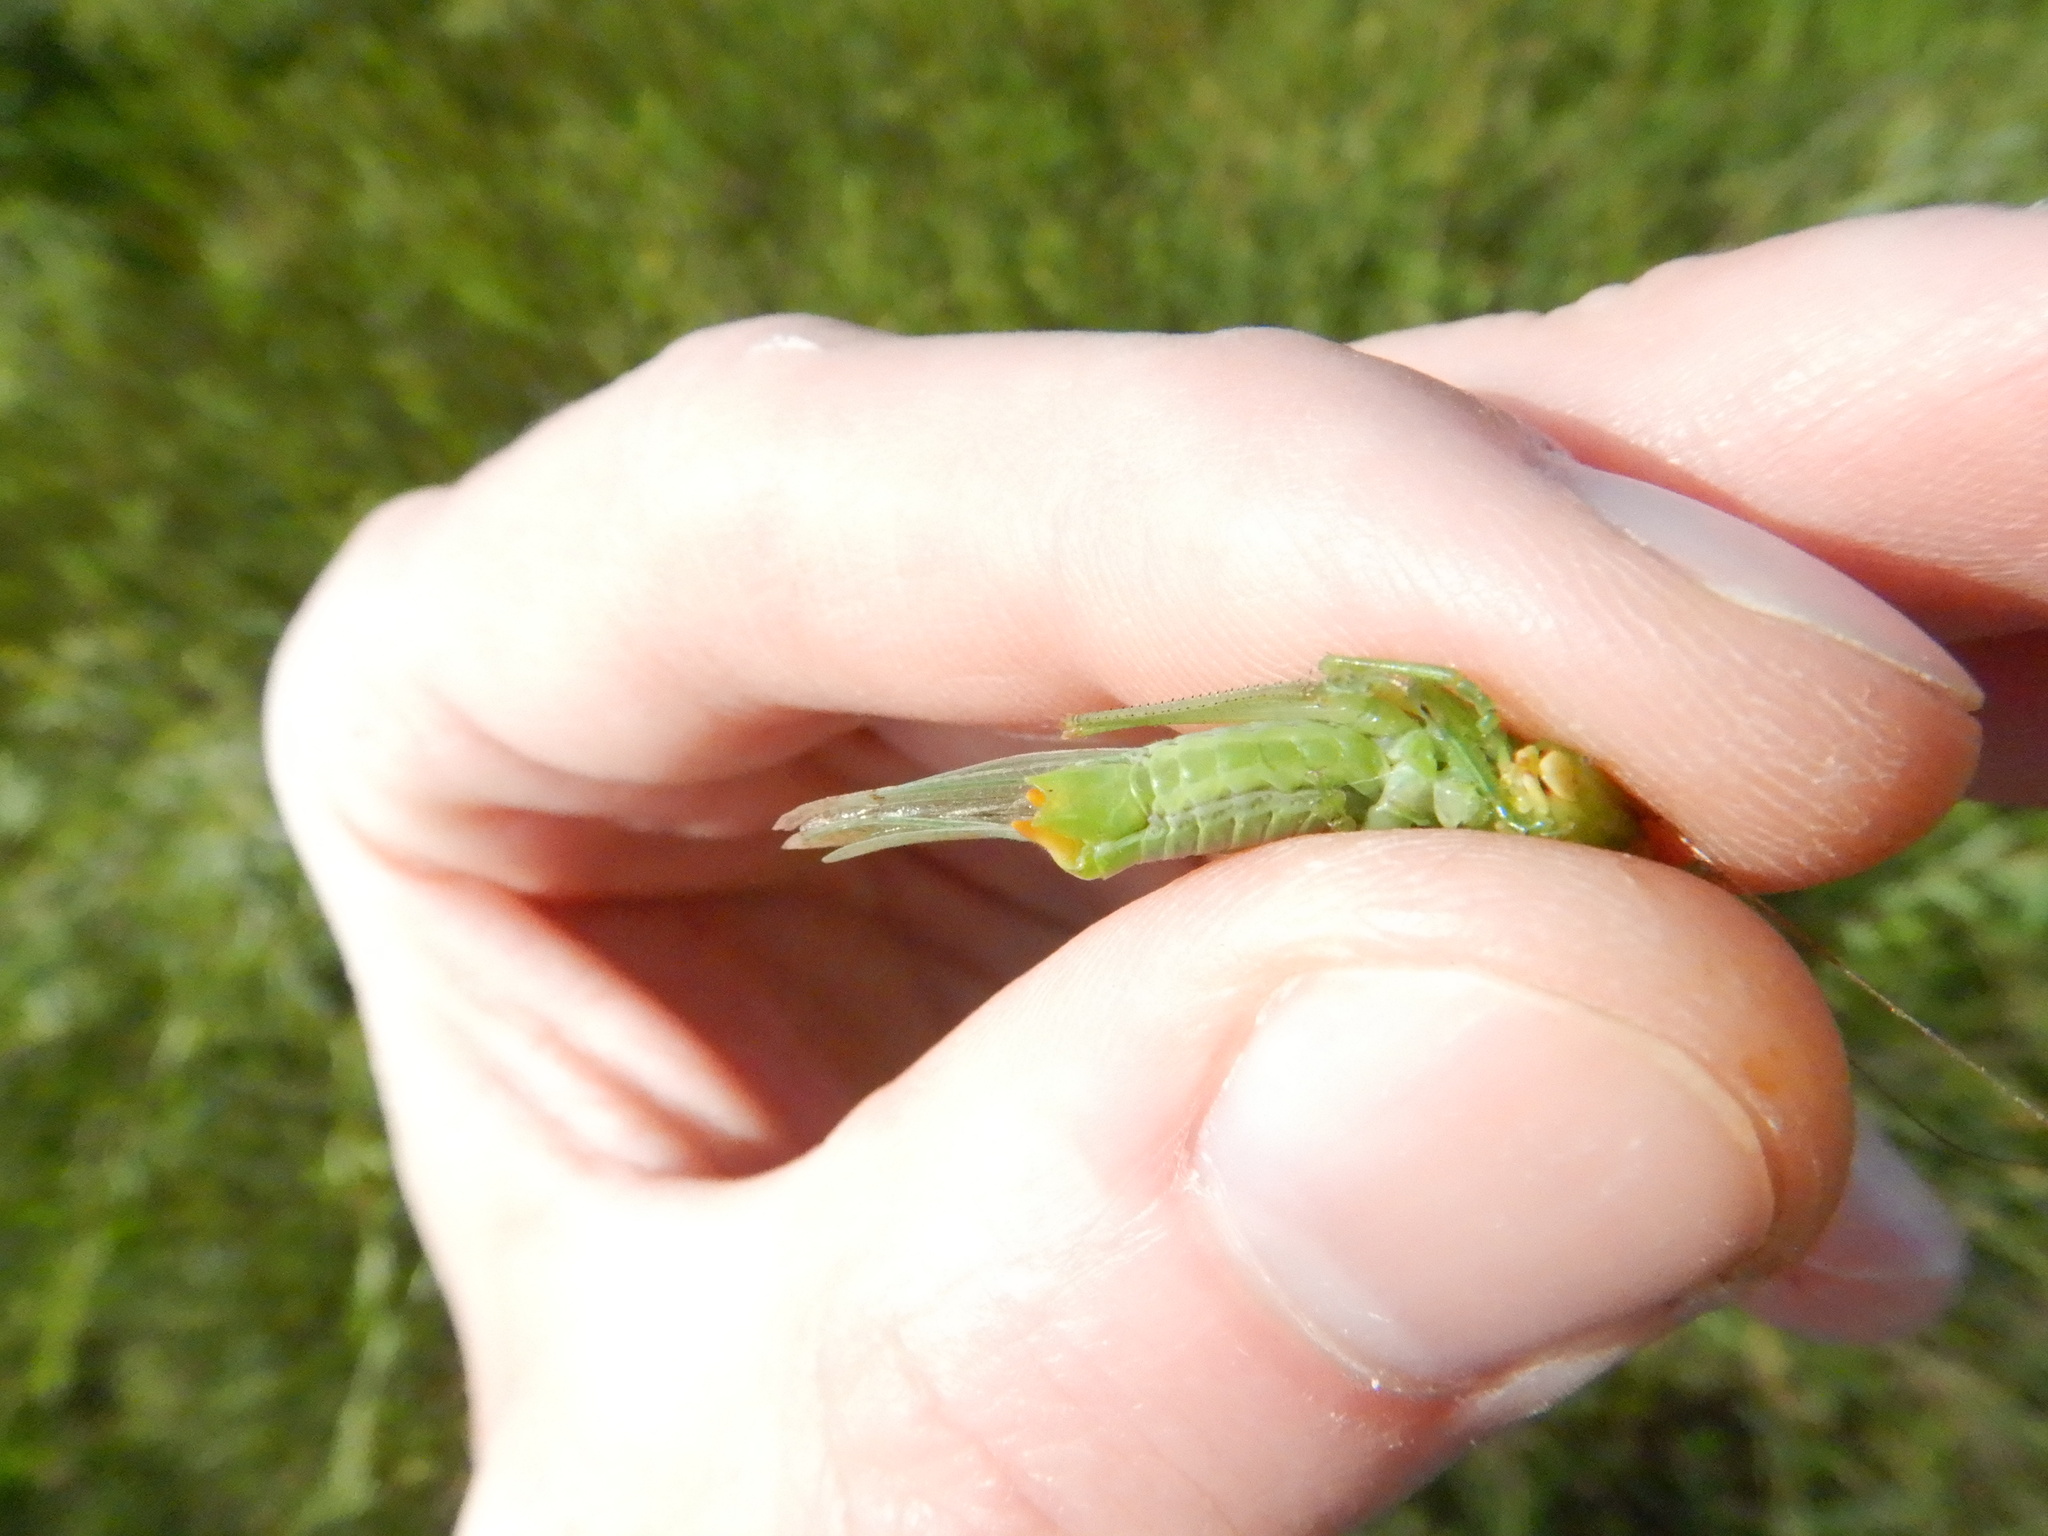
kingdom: Animalia
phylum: Arthropoda
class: Insecta
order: Orthoptera
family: Tettigoniidae
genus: Orchelimum
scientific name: Orchelimum gladiator
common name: Gladiator meadow katydid
